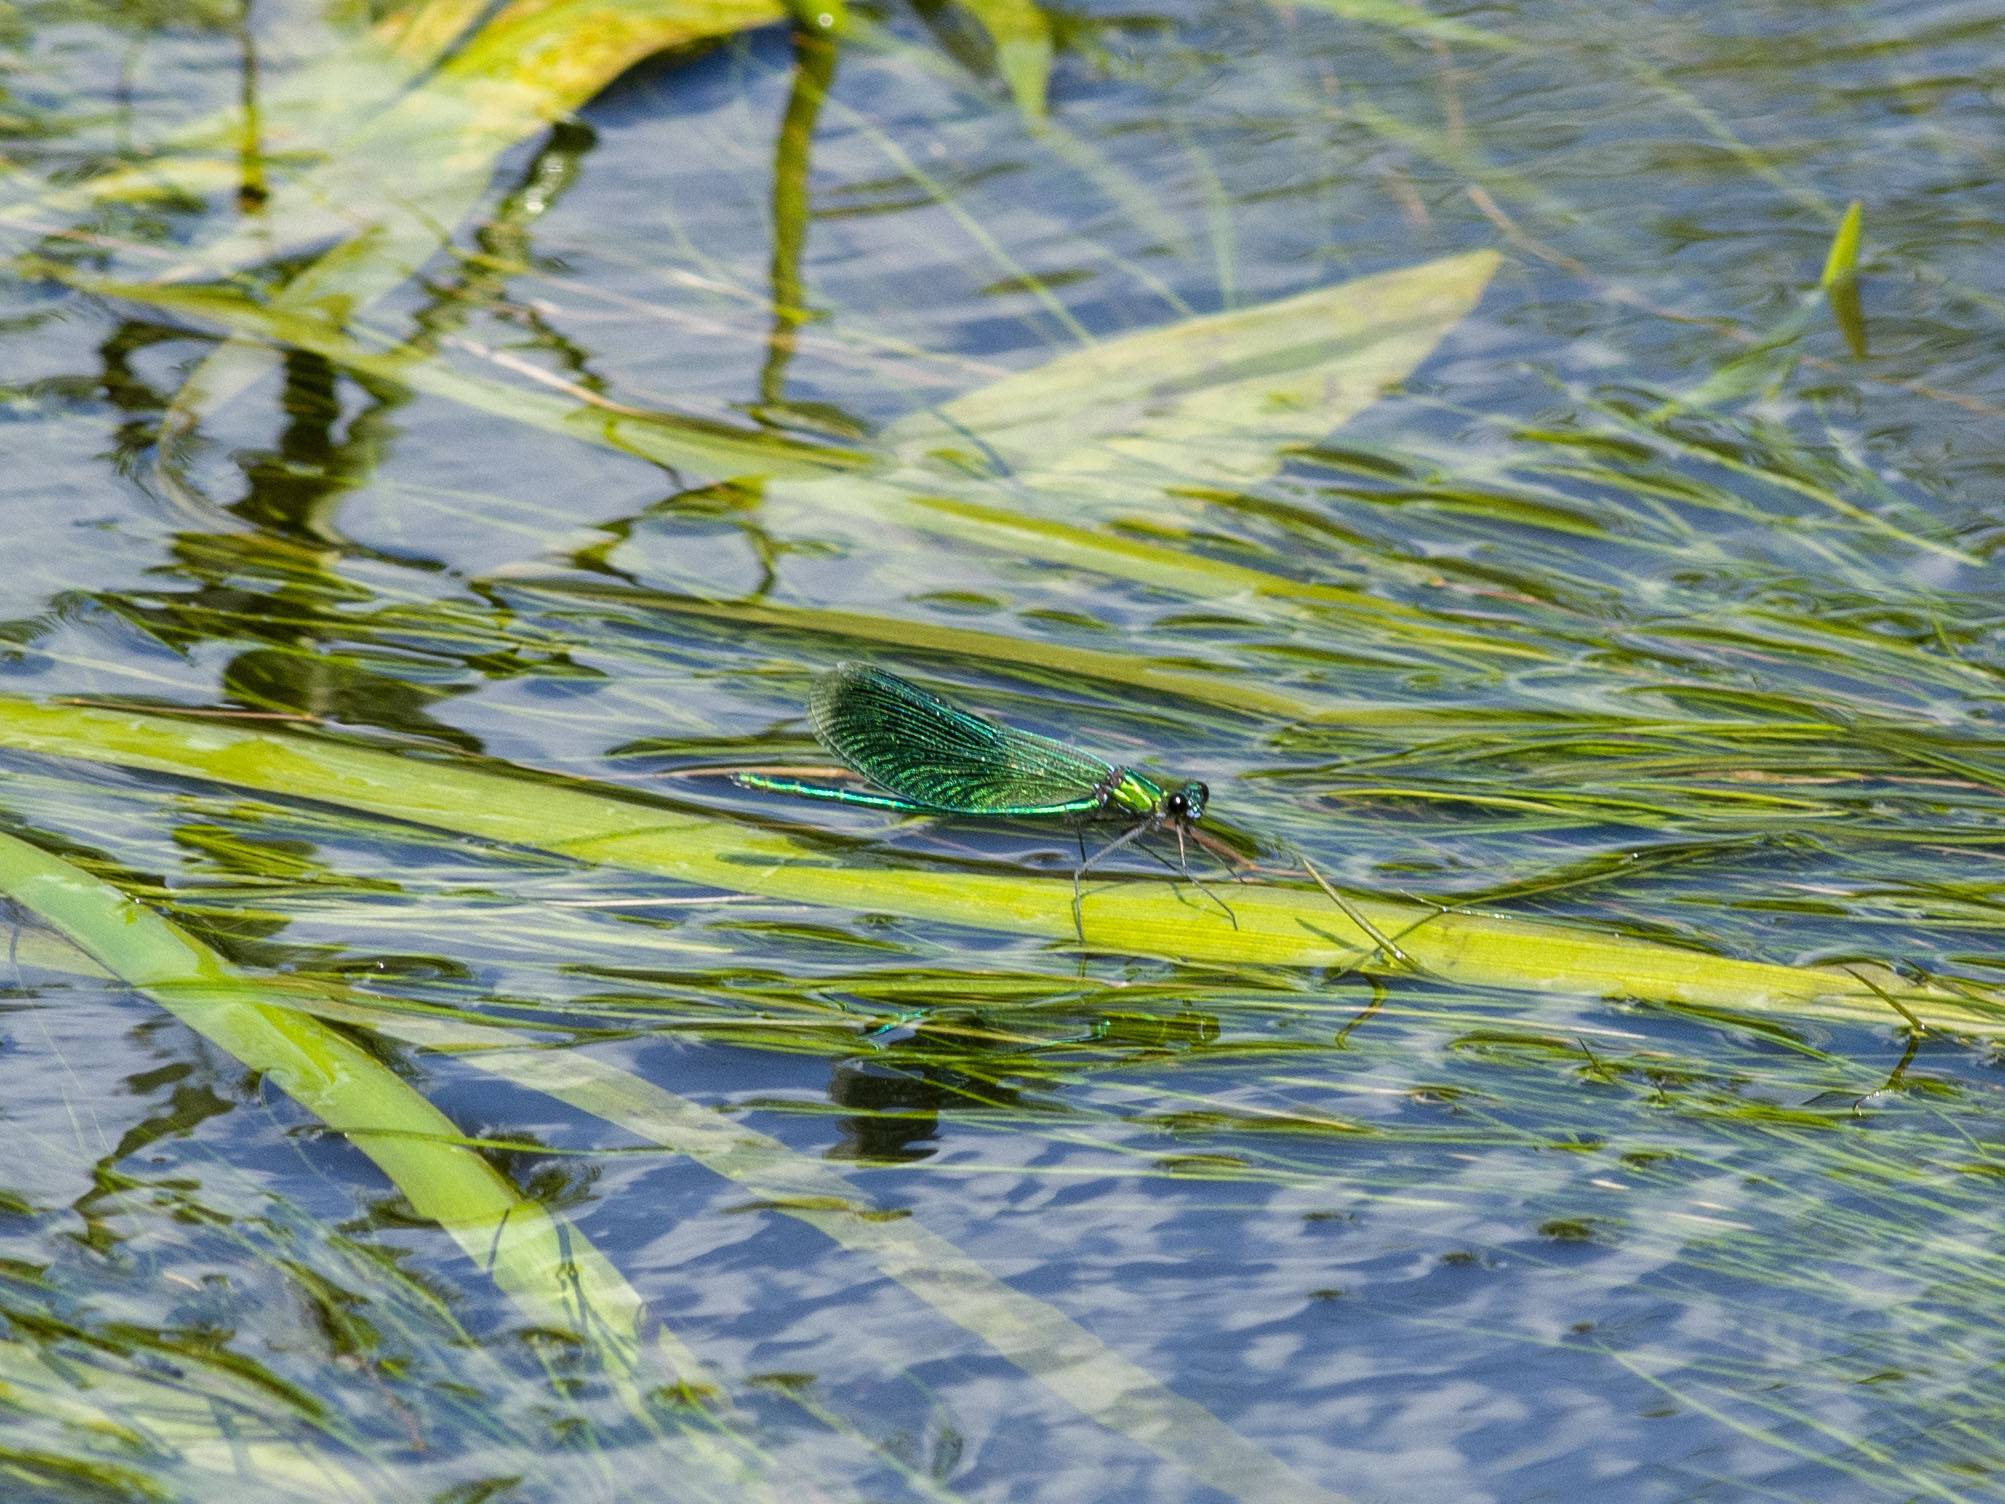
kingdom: Animalia
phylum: Arthropoda
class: Insecta
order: Odonata
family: Calopterygidae
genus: Calopteryx
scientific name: Calopteryx splendens
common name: Banded demoiselle
